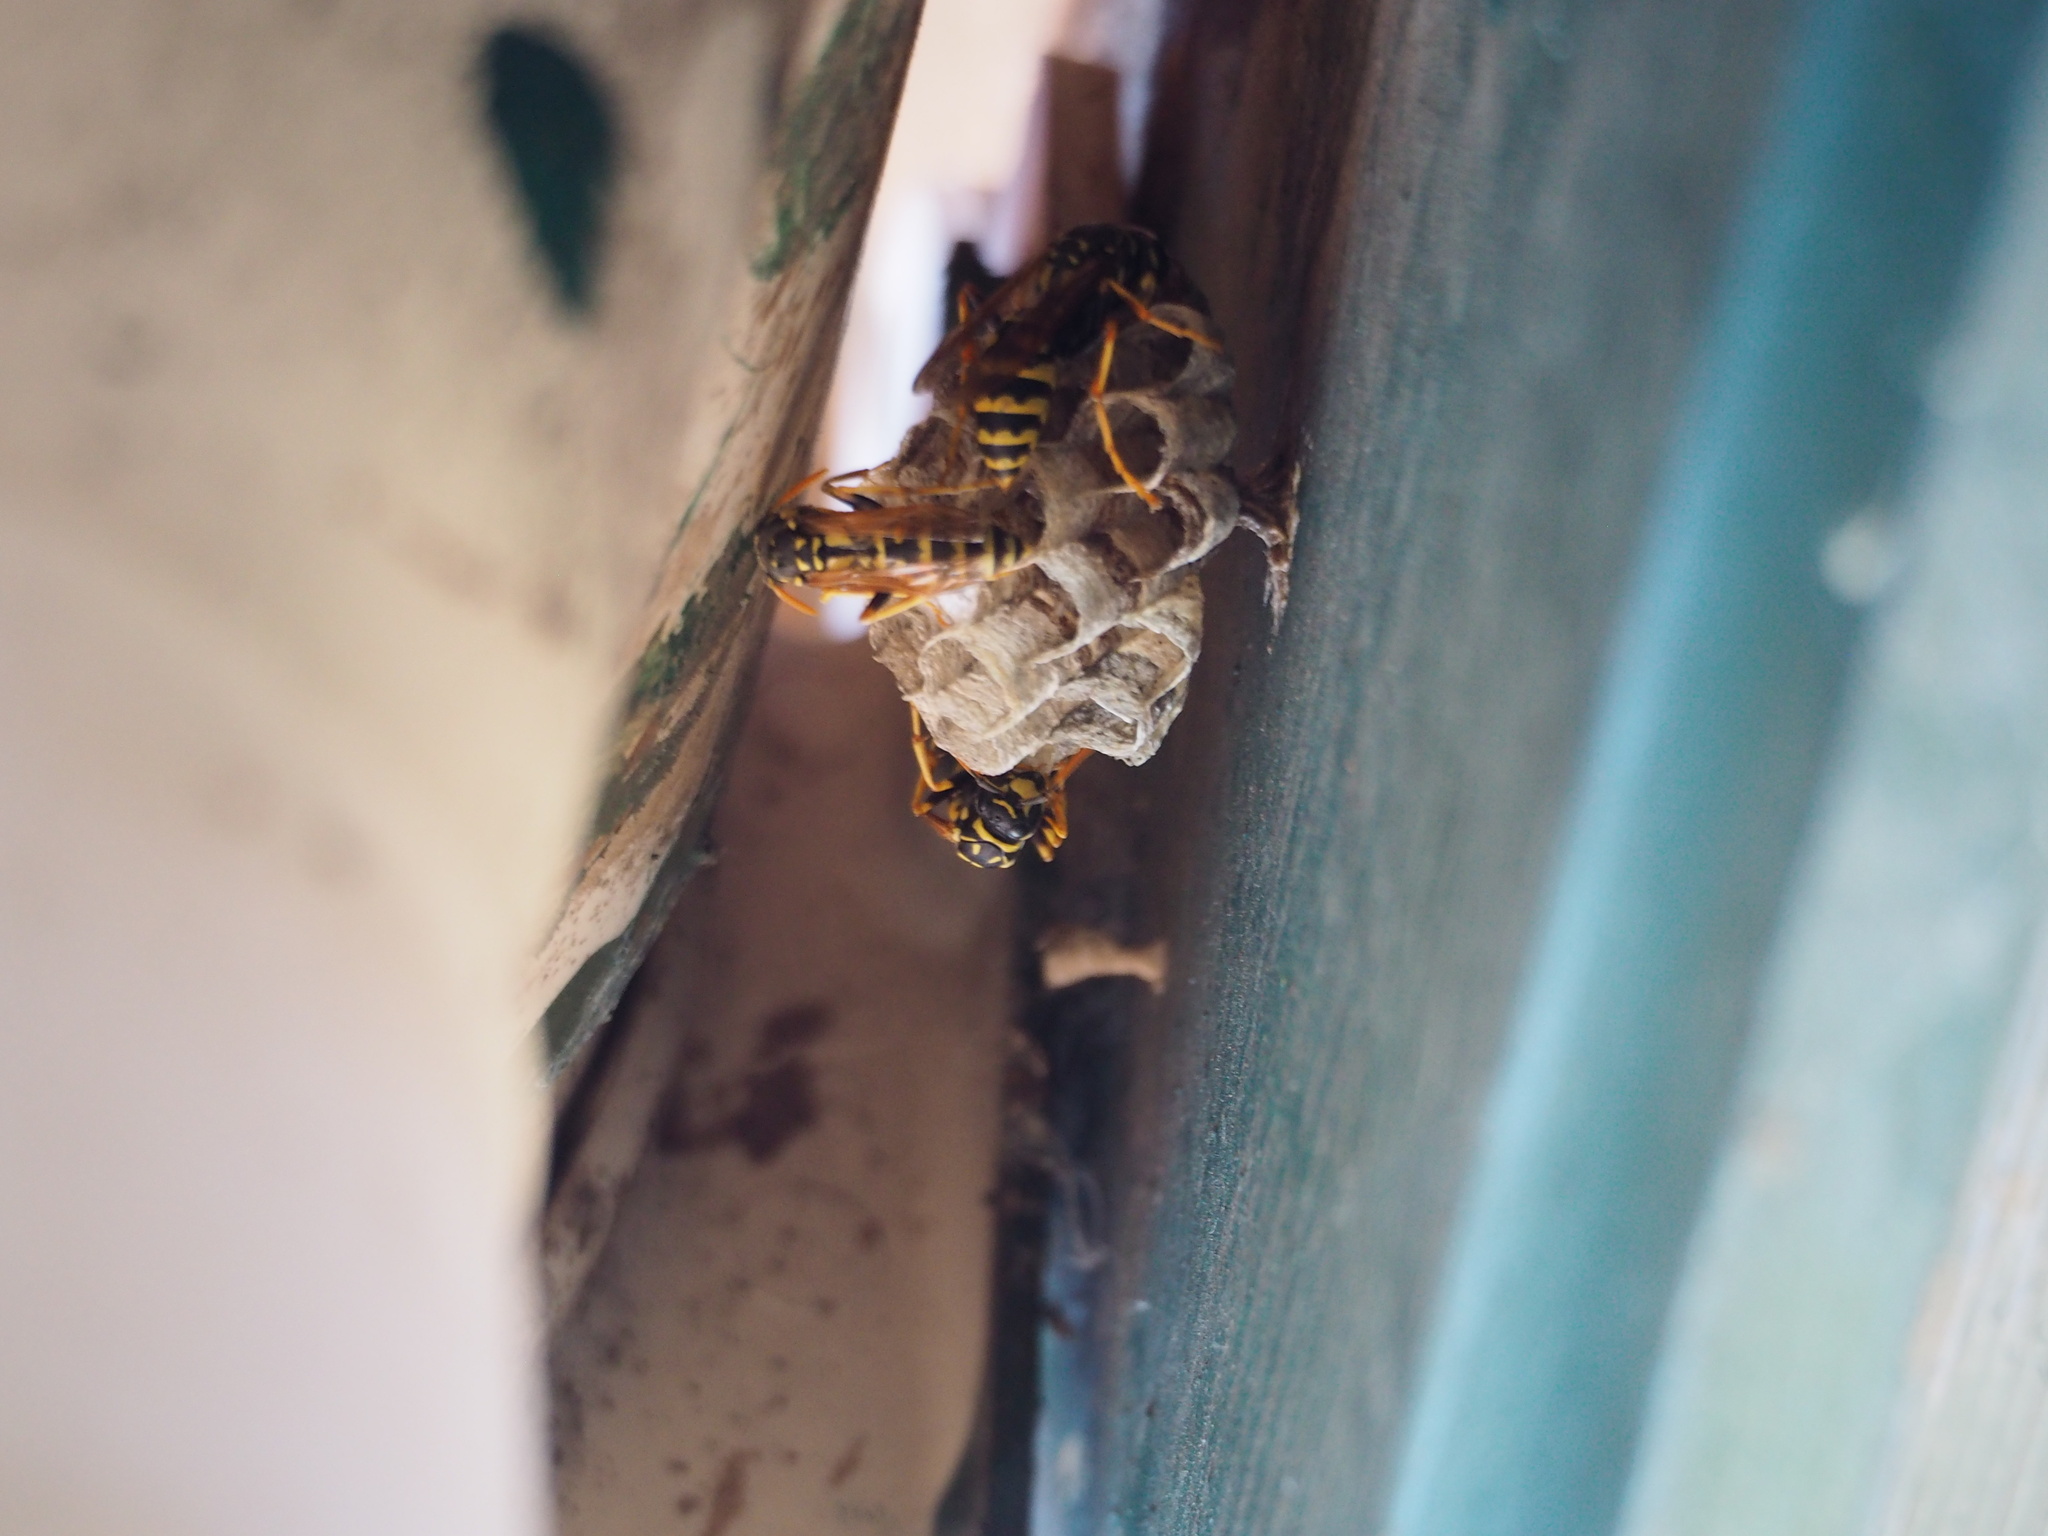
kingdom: Animalia
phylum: Arthropoda
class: Insecta
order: Hymenoptera
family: Eumenidae
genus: Polistes
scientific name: Polistes dominula
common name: Paper wasp
